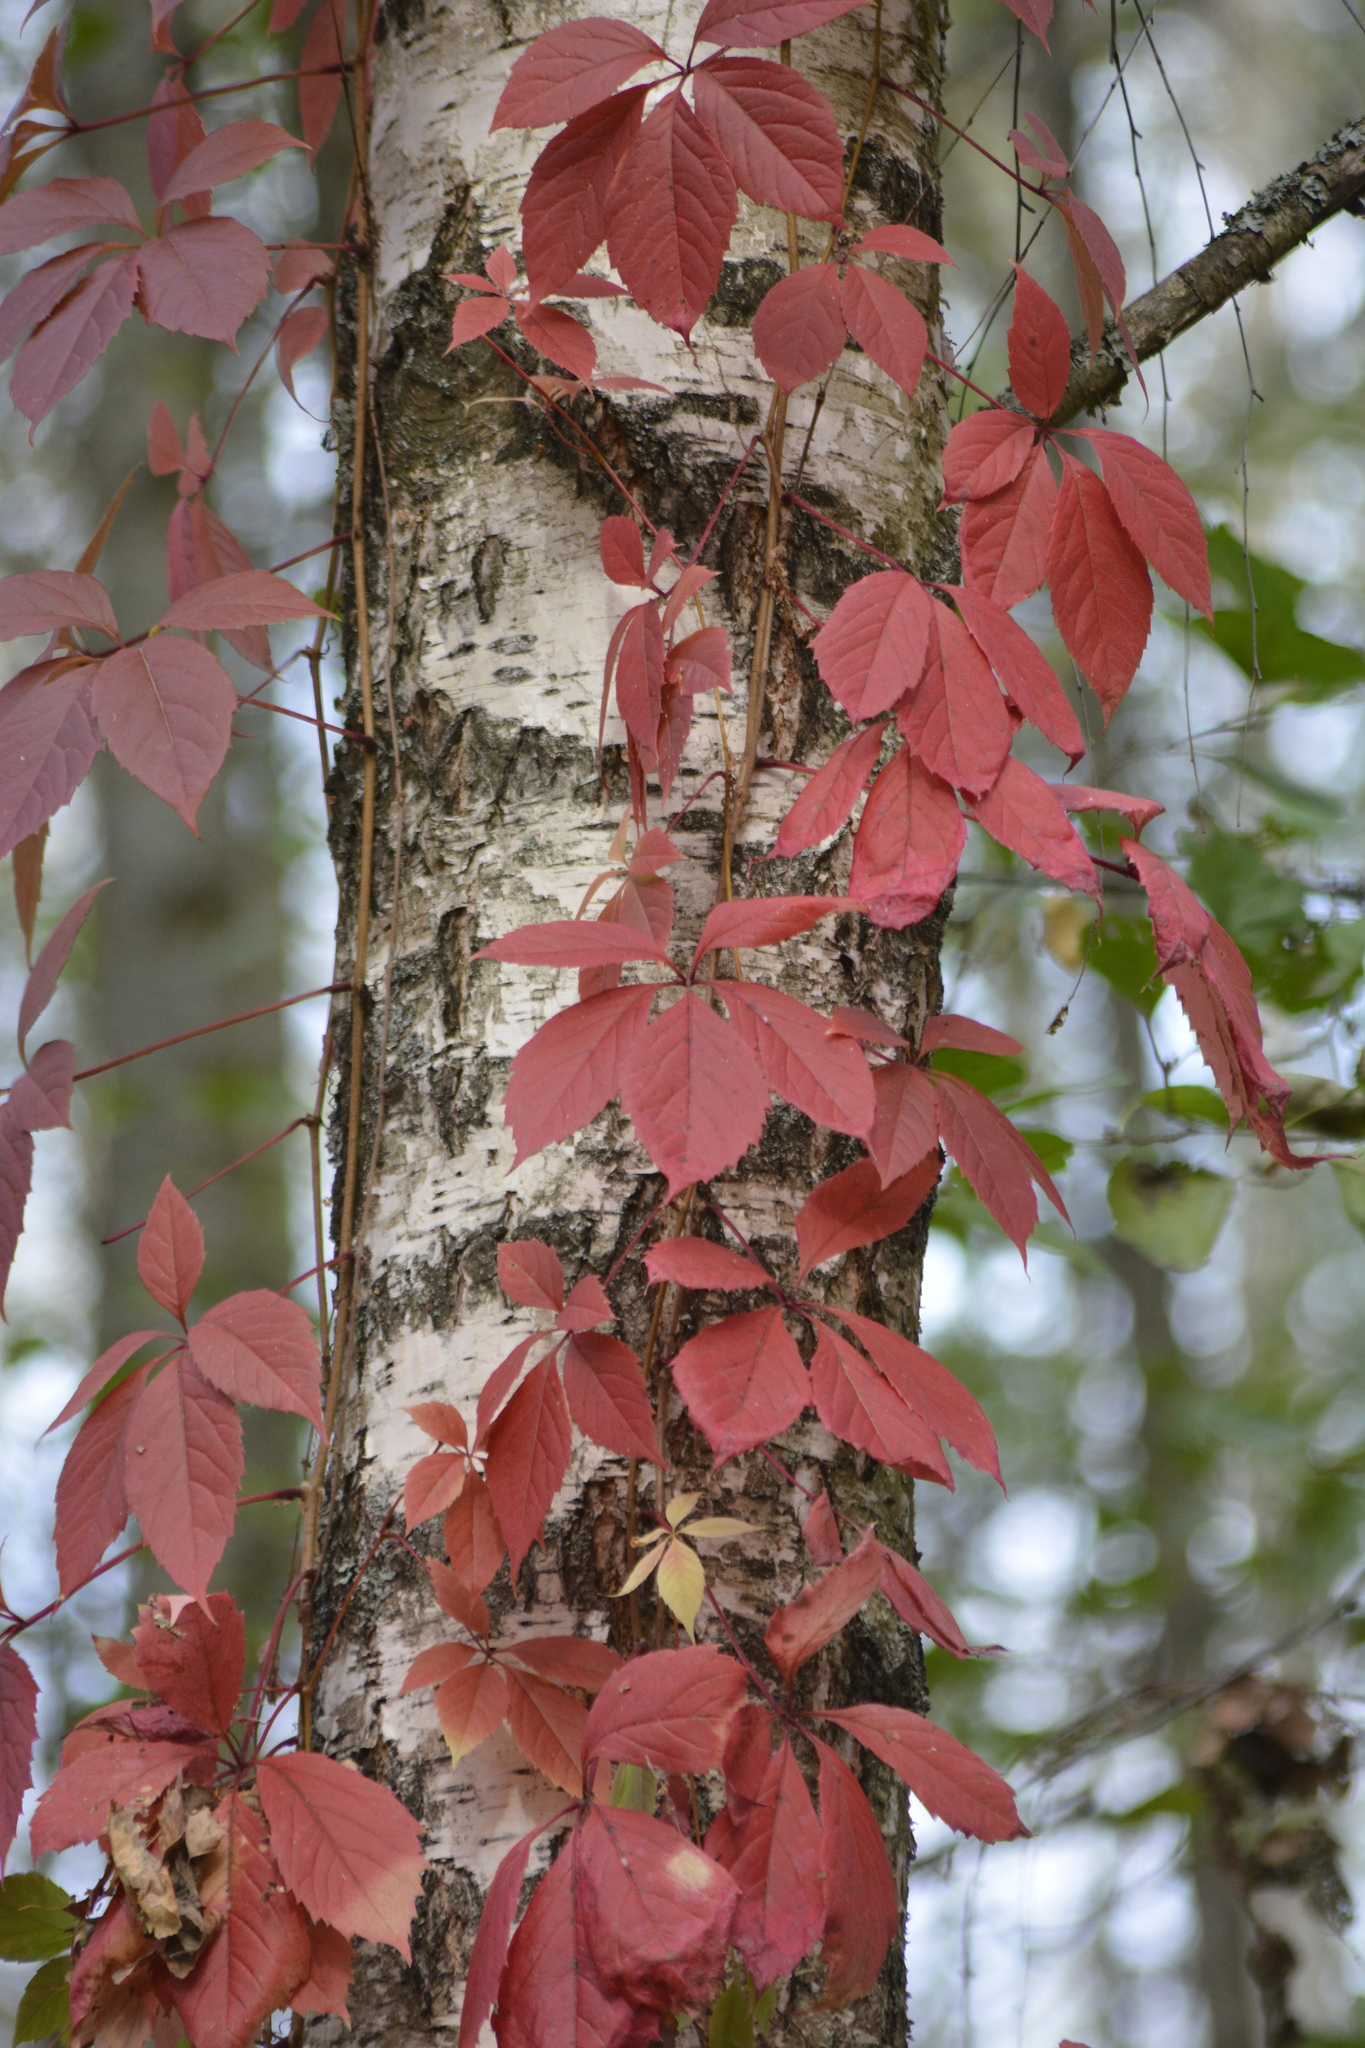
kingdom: Plantae
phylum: Tracheophyta
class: Magnoliopsida
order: Vitales
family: Vitaceae
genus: Parthenocissus
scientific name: Parthenocissus inserta
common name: False virginia-creeper
